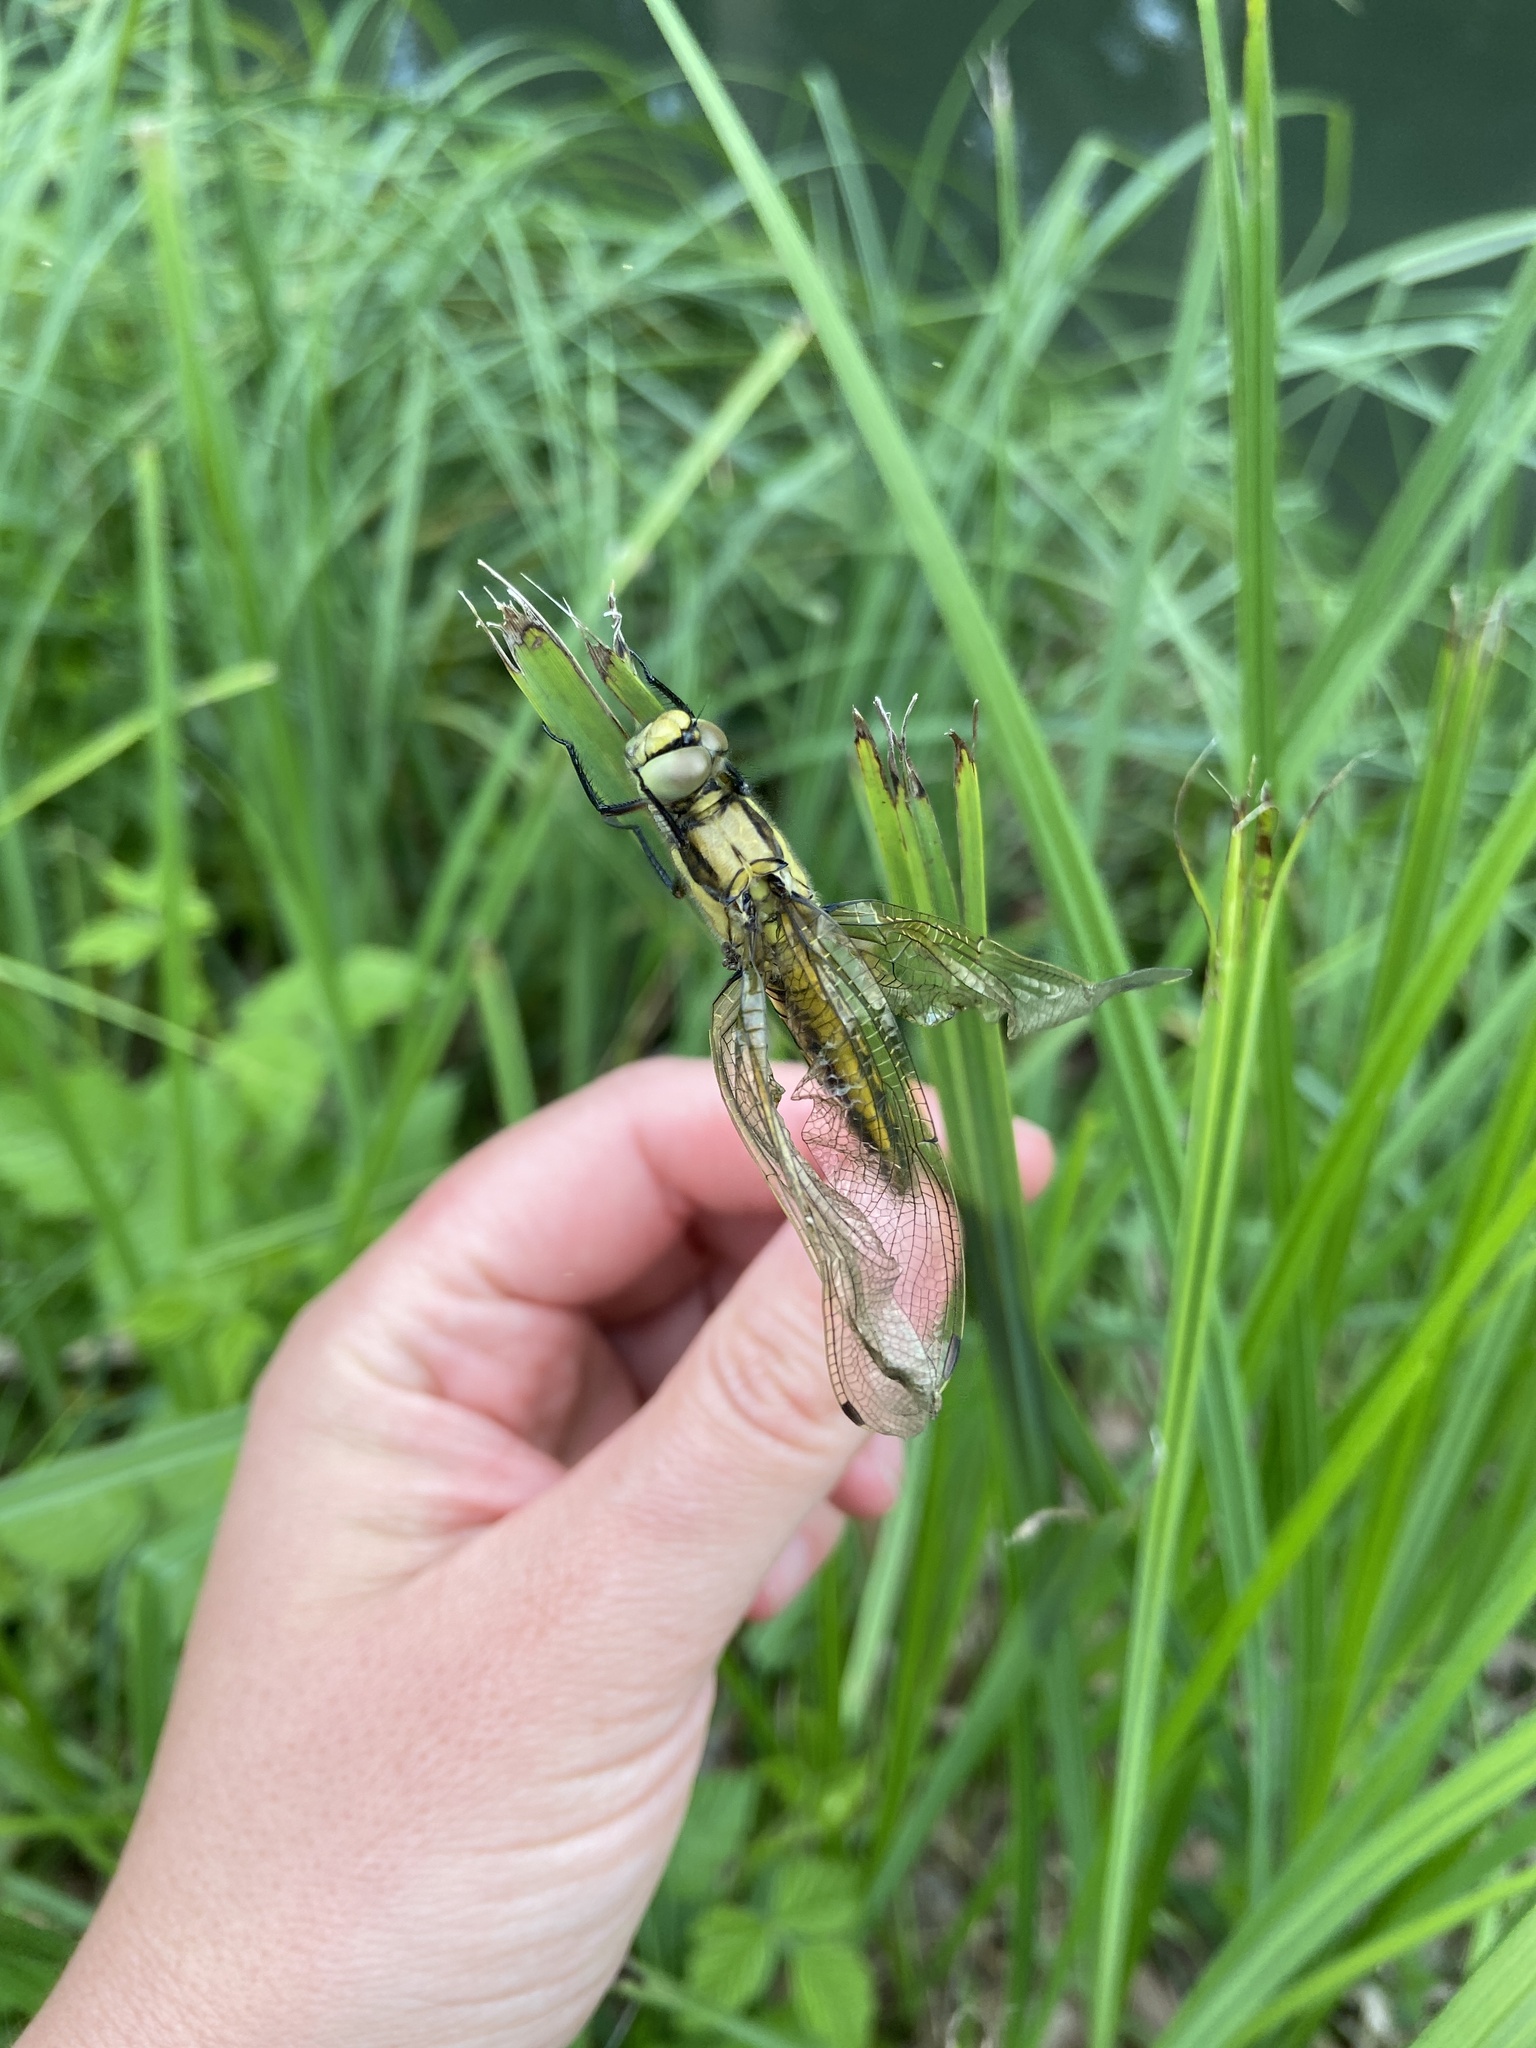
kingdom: Animalia
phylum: Arthropoda
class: Insecta
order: Odonata
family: Libellulidae
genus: Orthetrum
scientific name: Orthetrum cancellatum
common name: Black-tailed skimmer
